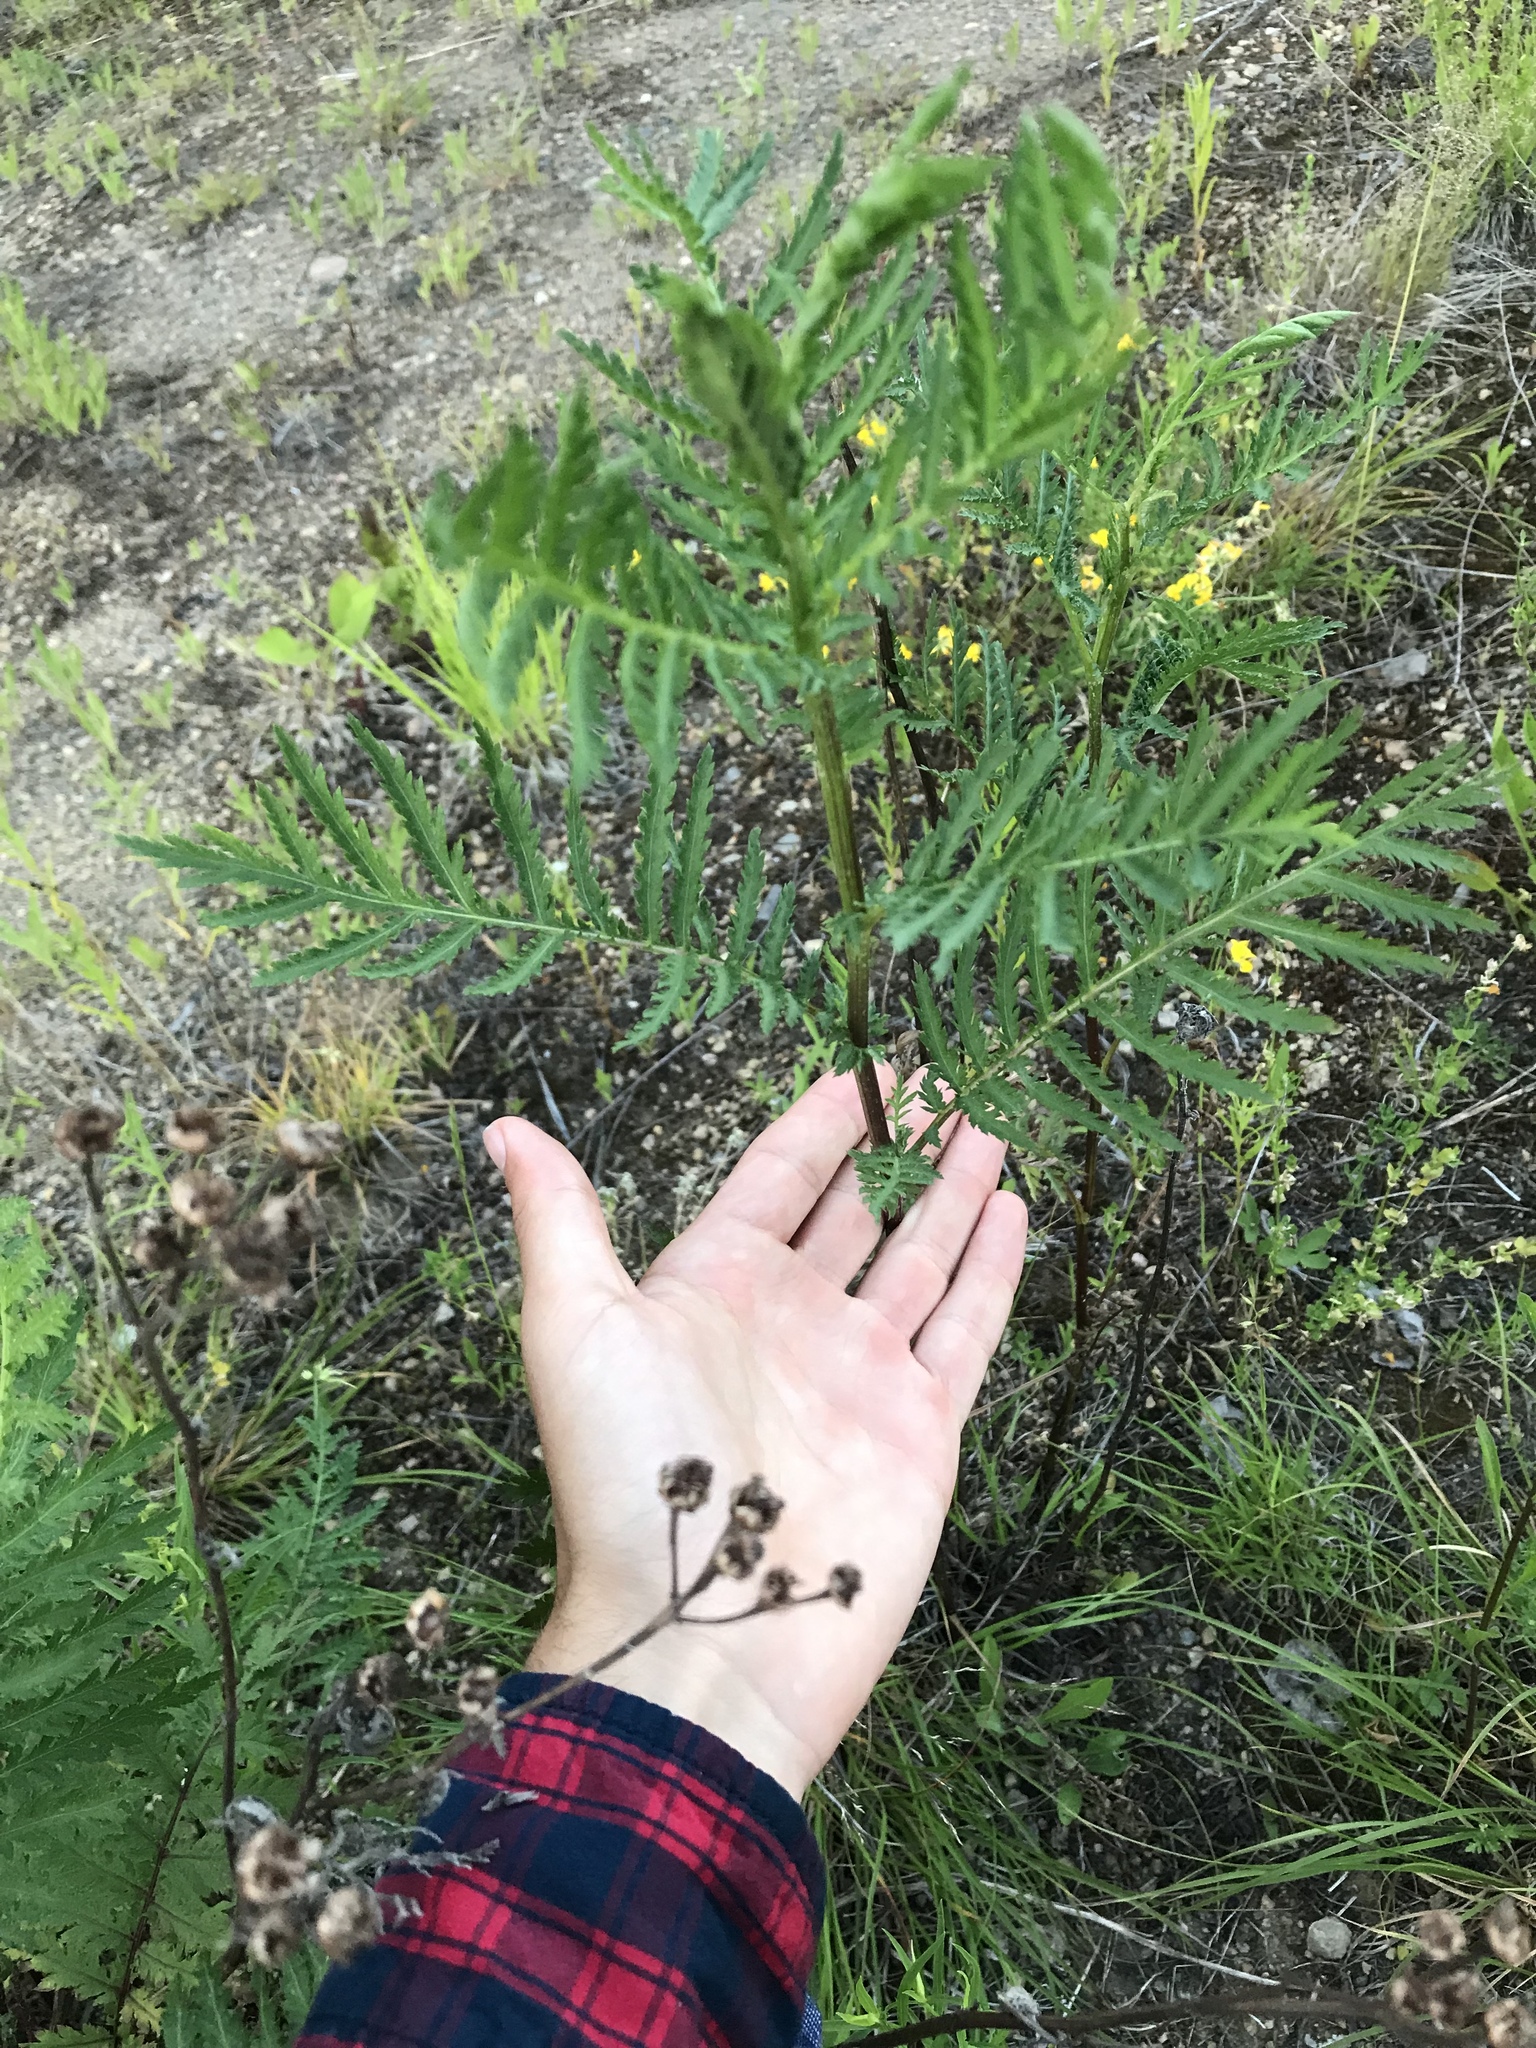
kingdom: Plantae
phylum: Tracheophyta
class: Magnoliopsida
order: Asterales
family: Asteraceae
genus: Tanacetum
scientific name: Tanacetum vulgare
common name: Common tansy
